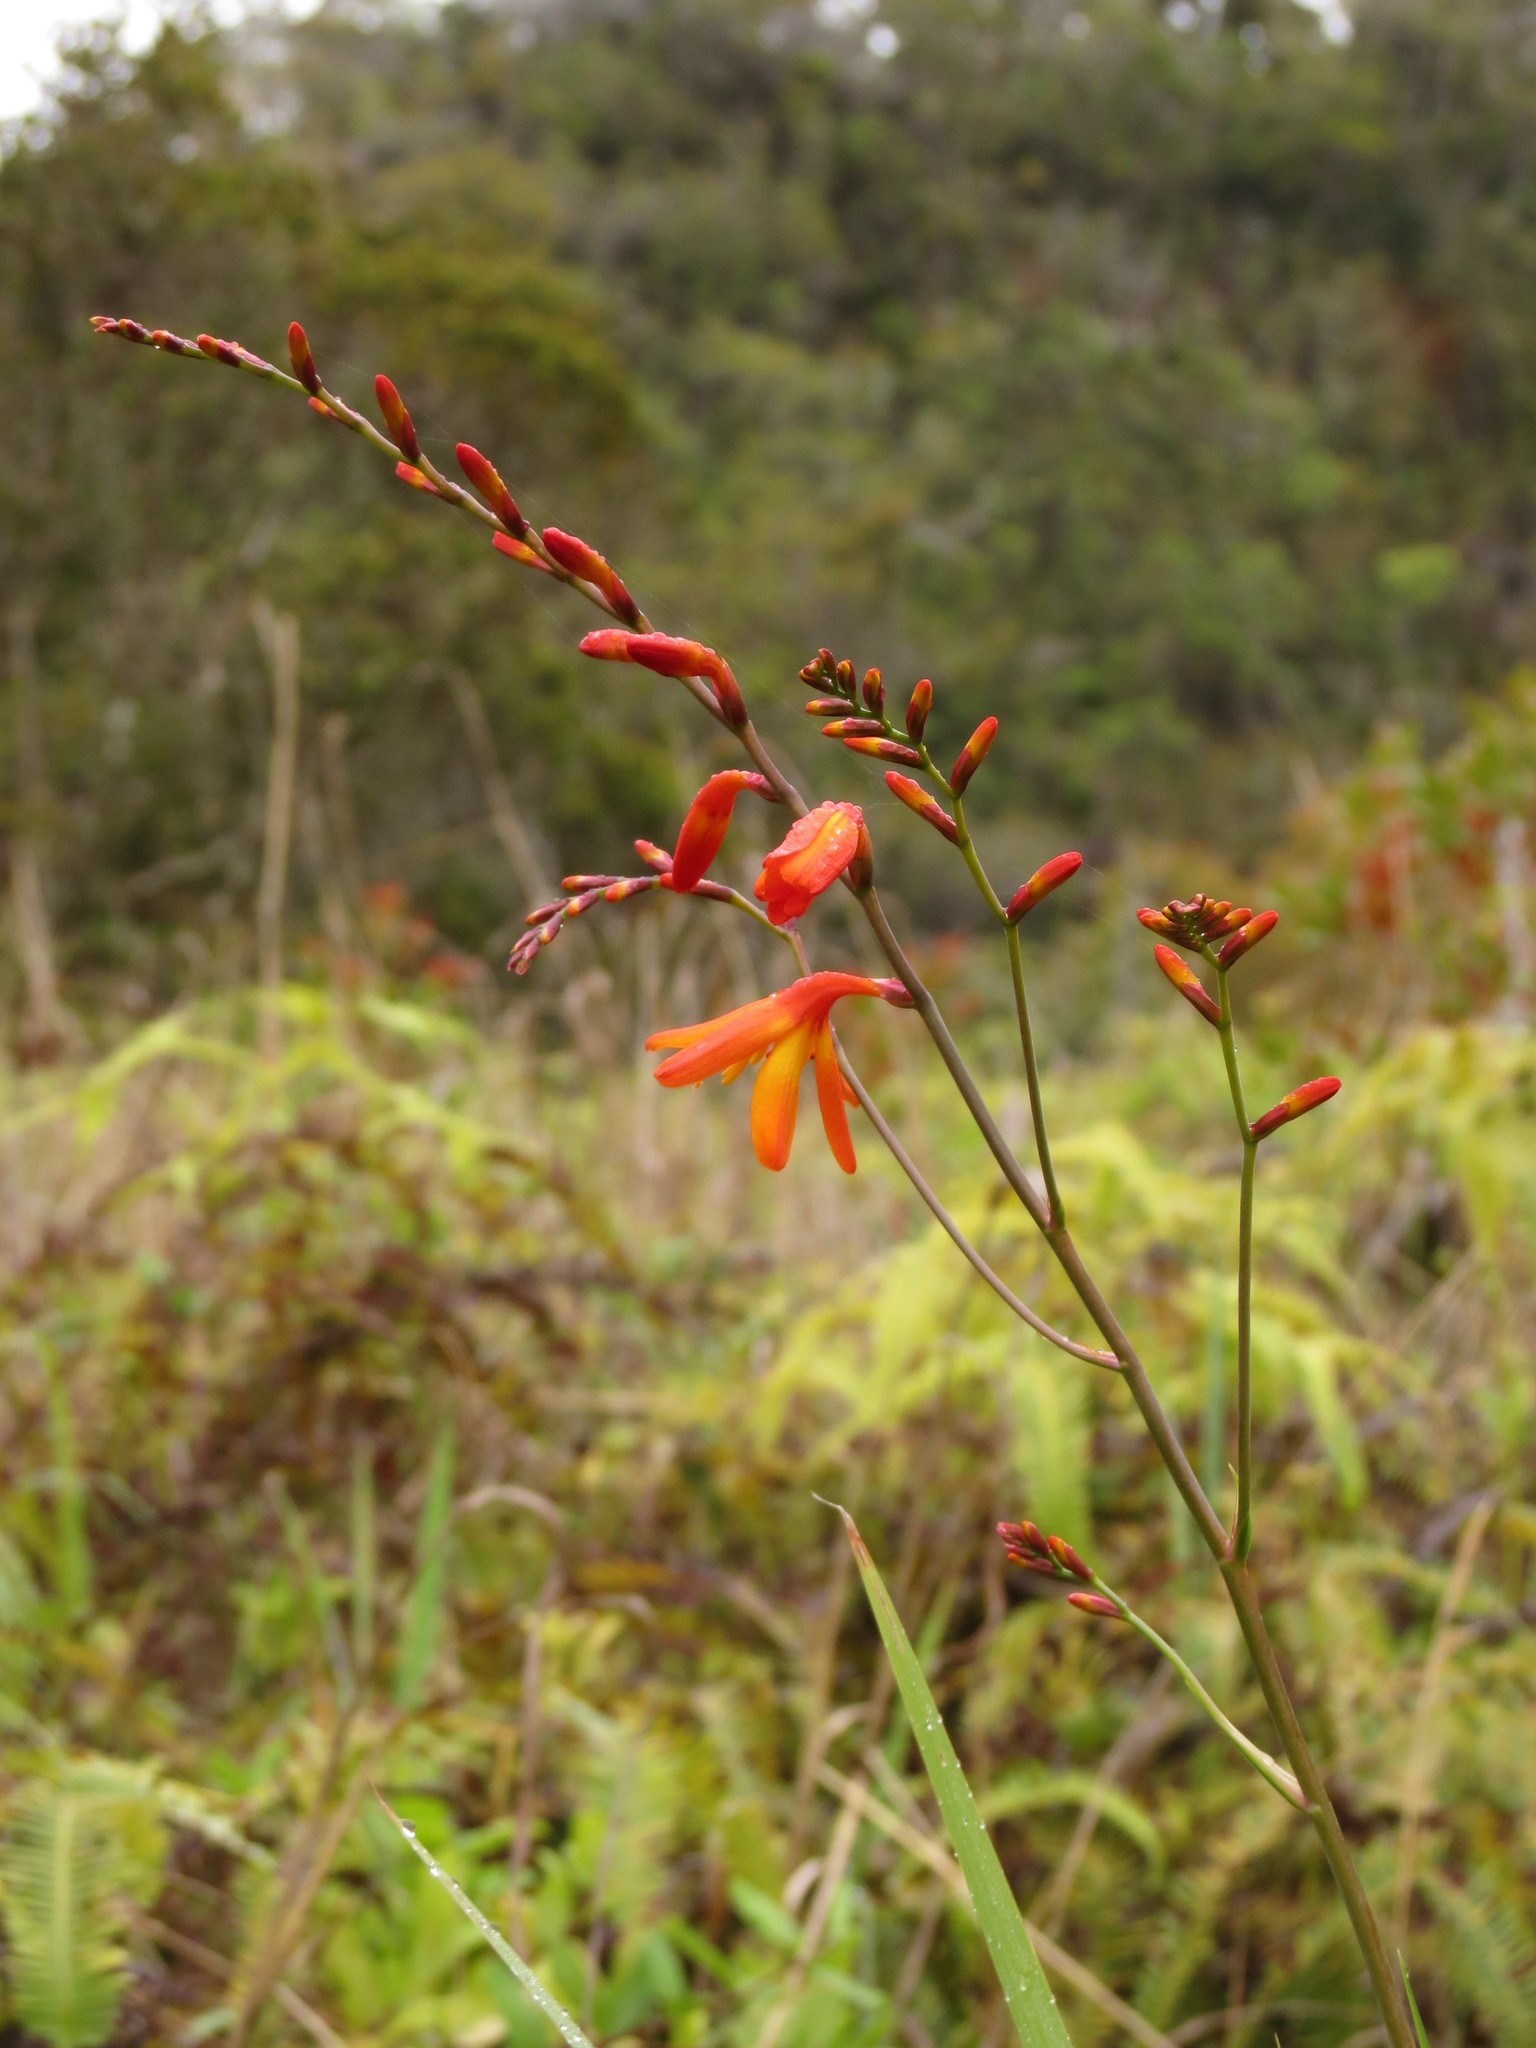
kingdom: Plantae
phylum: Tracheophyta
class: Liliopsida
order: Asparagales
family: Iridaceae
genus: Crocosmia
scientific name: Crocosmia crocosmiiflora
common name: Montbretia
